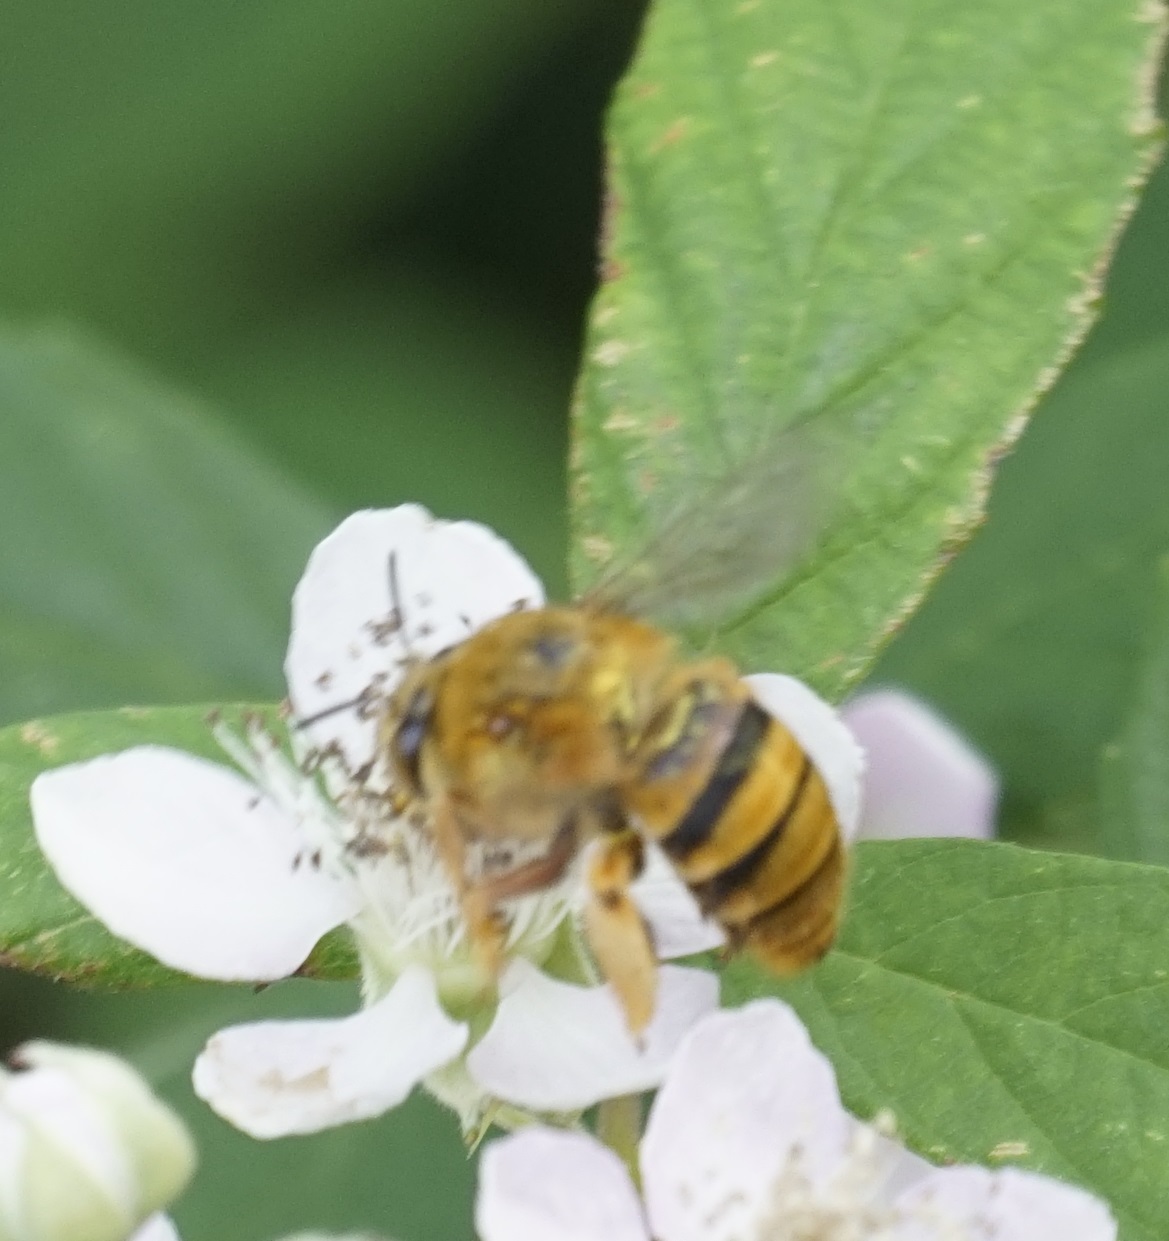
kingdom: Animalia
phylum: Arthropoda
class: Insecta
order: Hymenoptera
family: Apidae
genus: Amegilla
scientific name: Amegilla bombiformis
